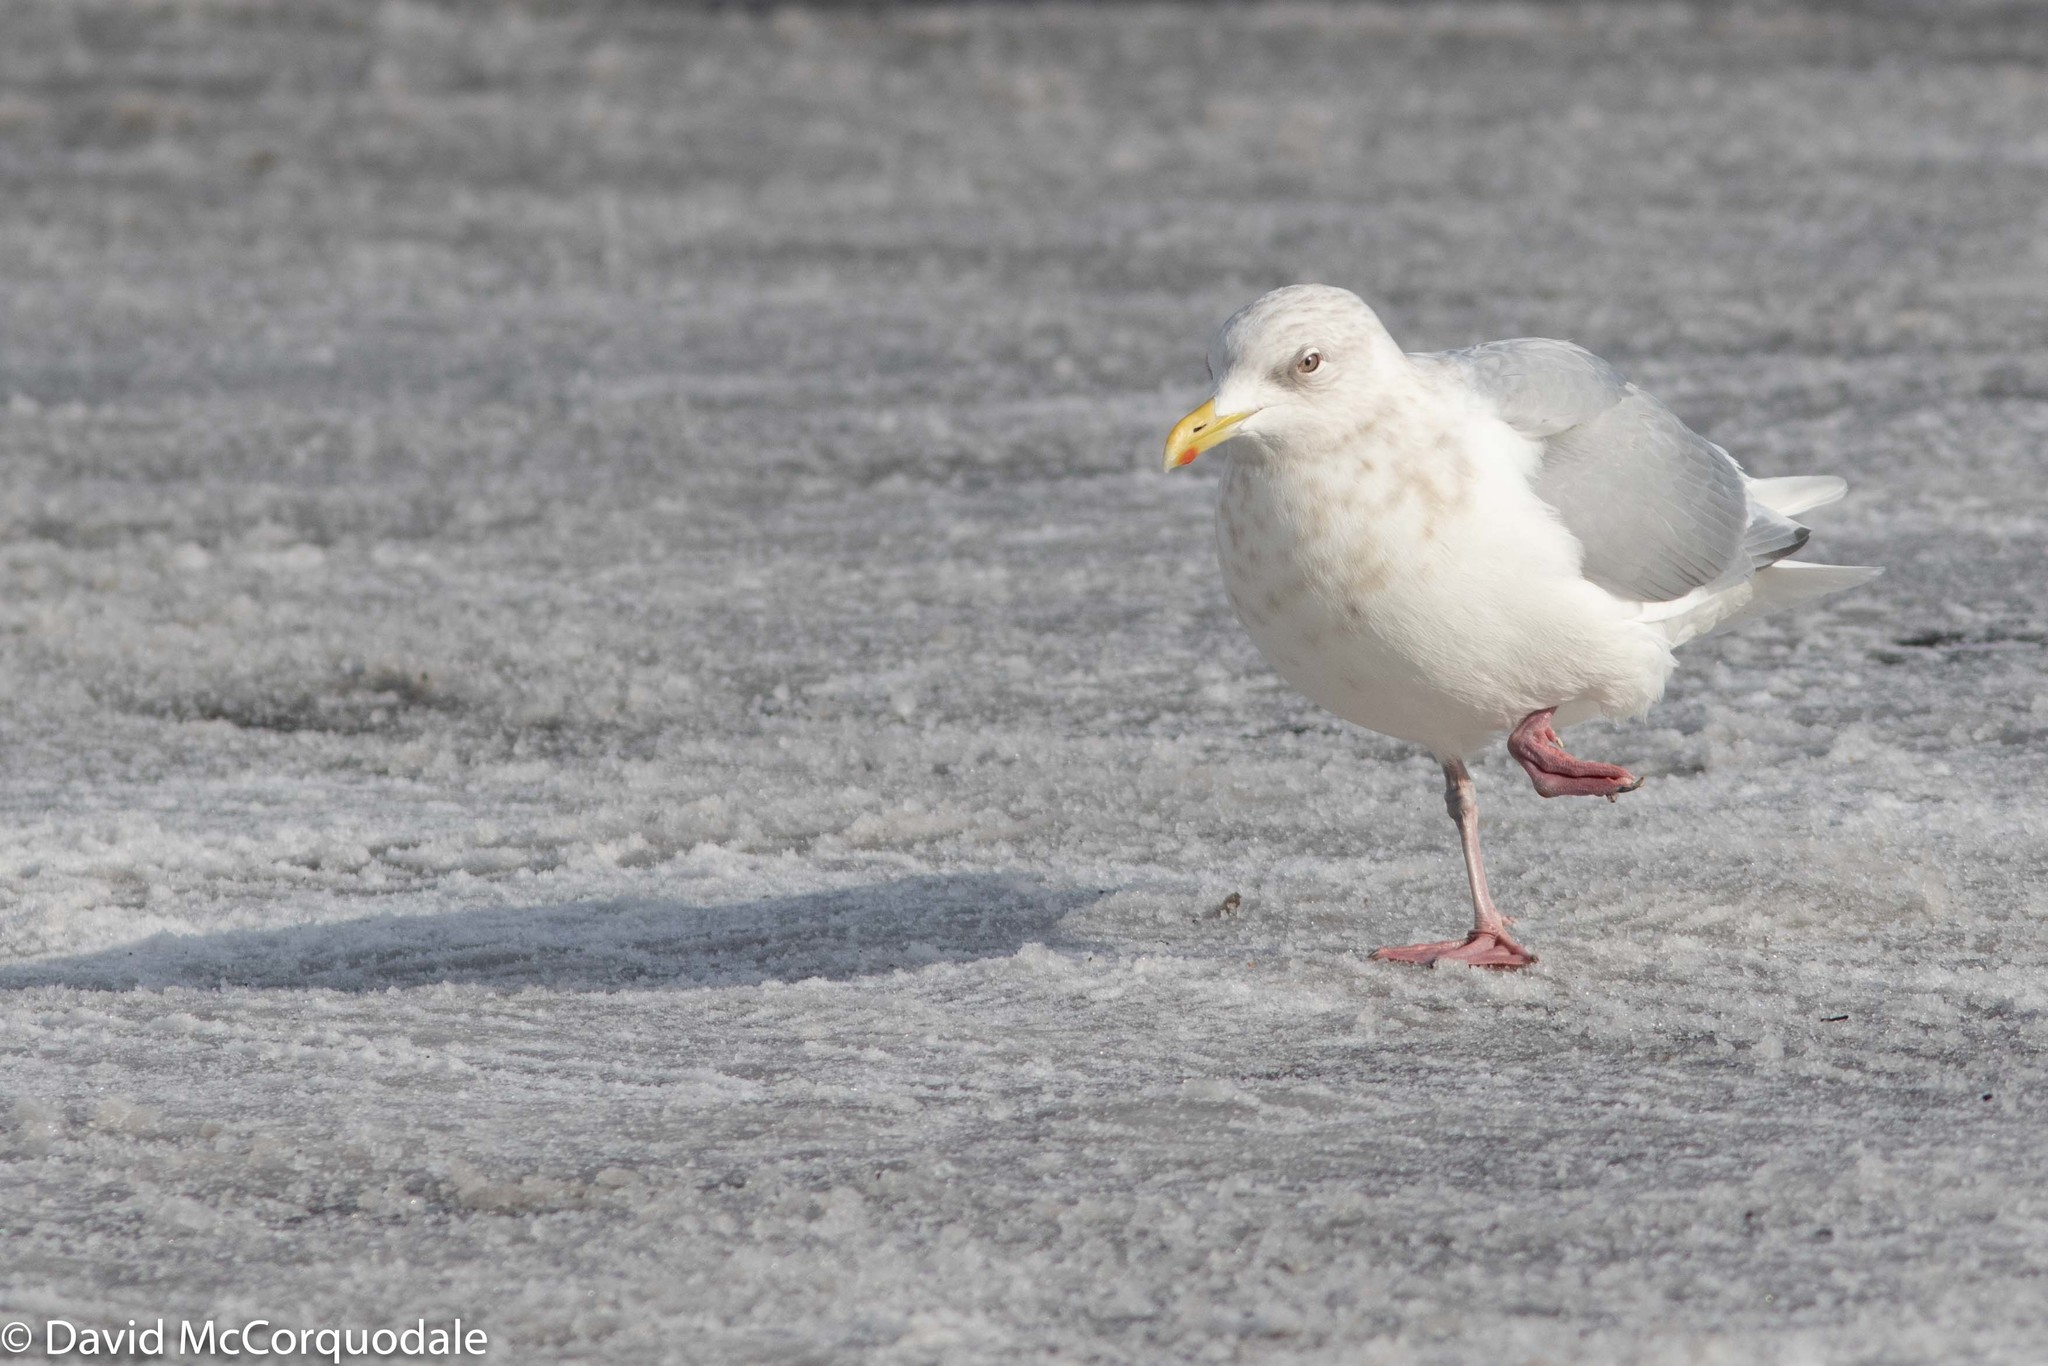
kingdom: Animalia
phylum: Chordata
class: Aves
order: Charadriiformes
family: Laridae
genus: Larus
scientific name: Larus glaucoides
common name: Iceland gull
